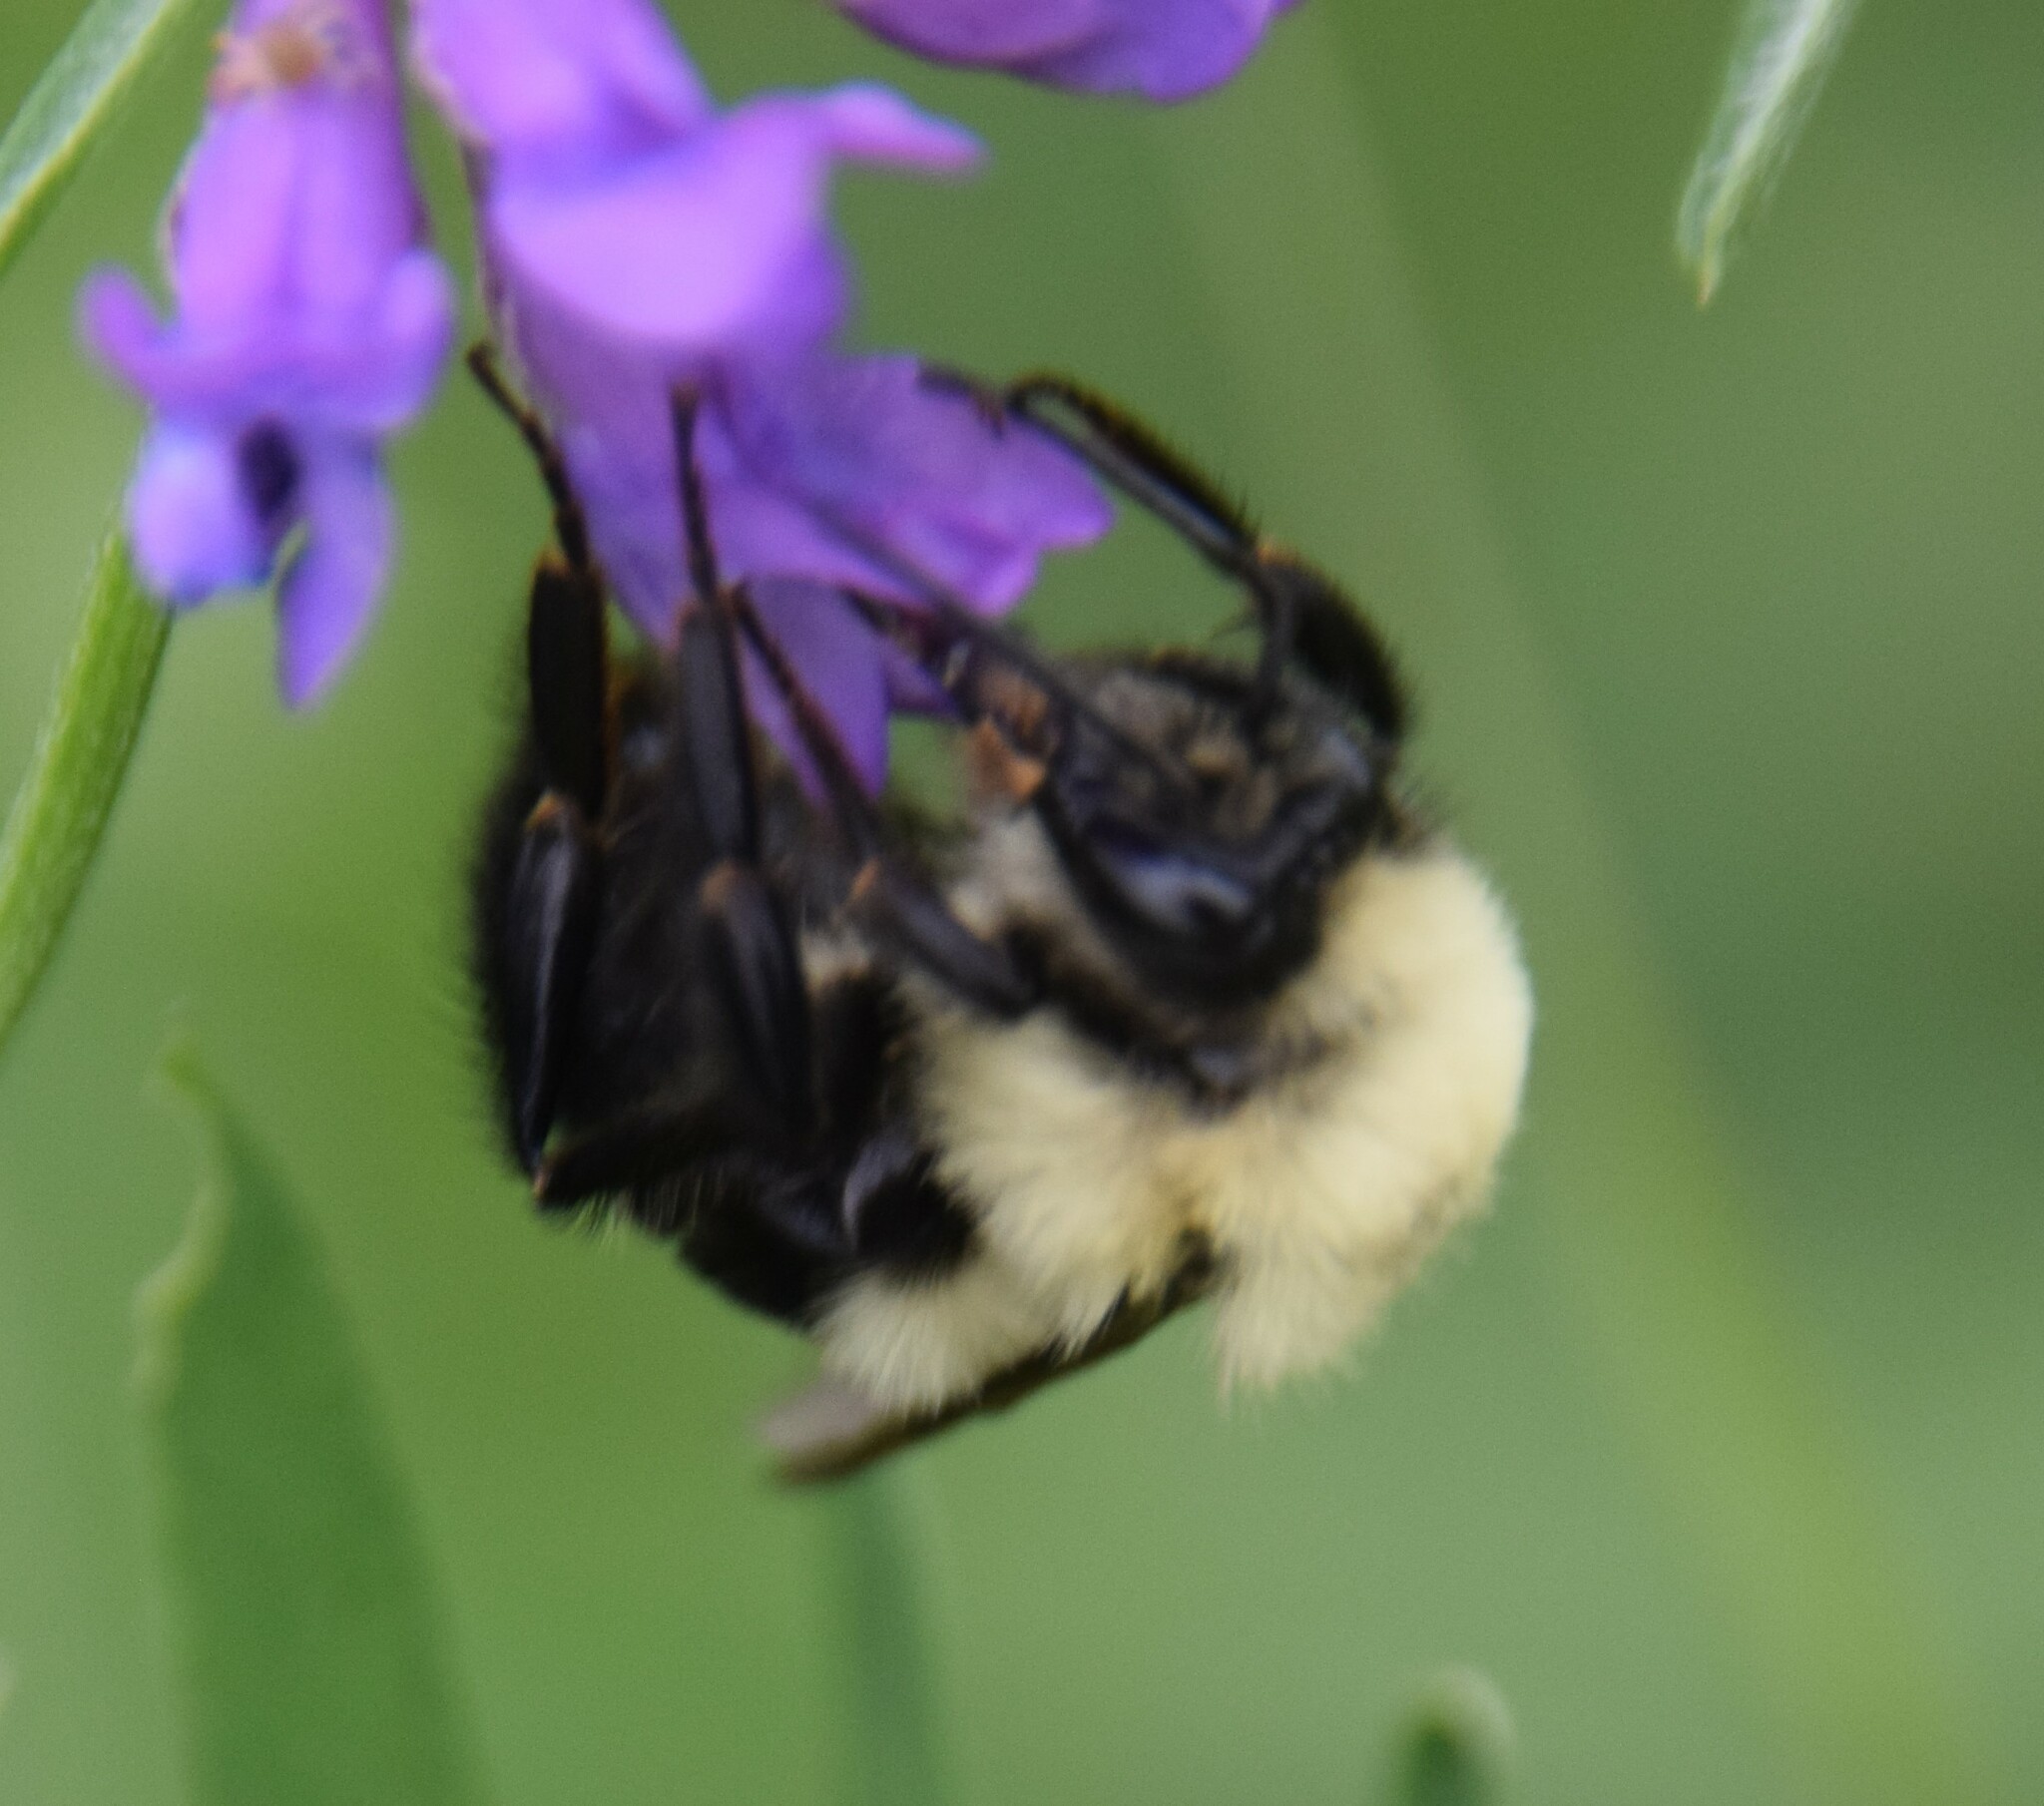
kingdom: Animalia
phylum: Arthropoda
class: Insecta
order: Hymenoptera
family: Apidae
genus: Bombus
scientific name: Bombus bimaculatus
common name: Two-spotted bumble bee
